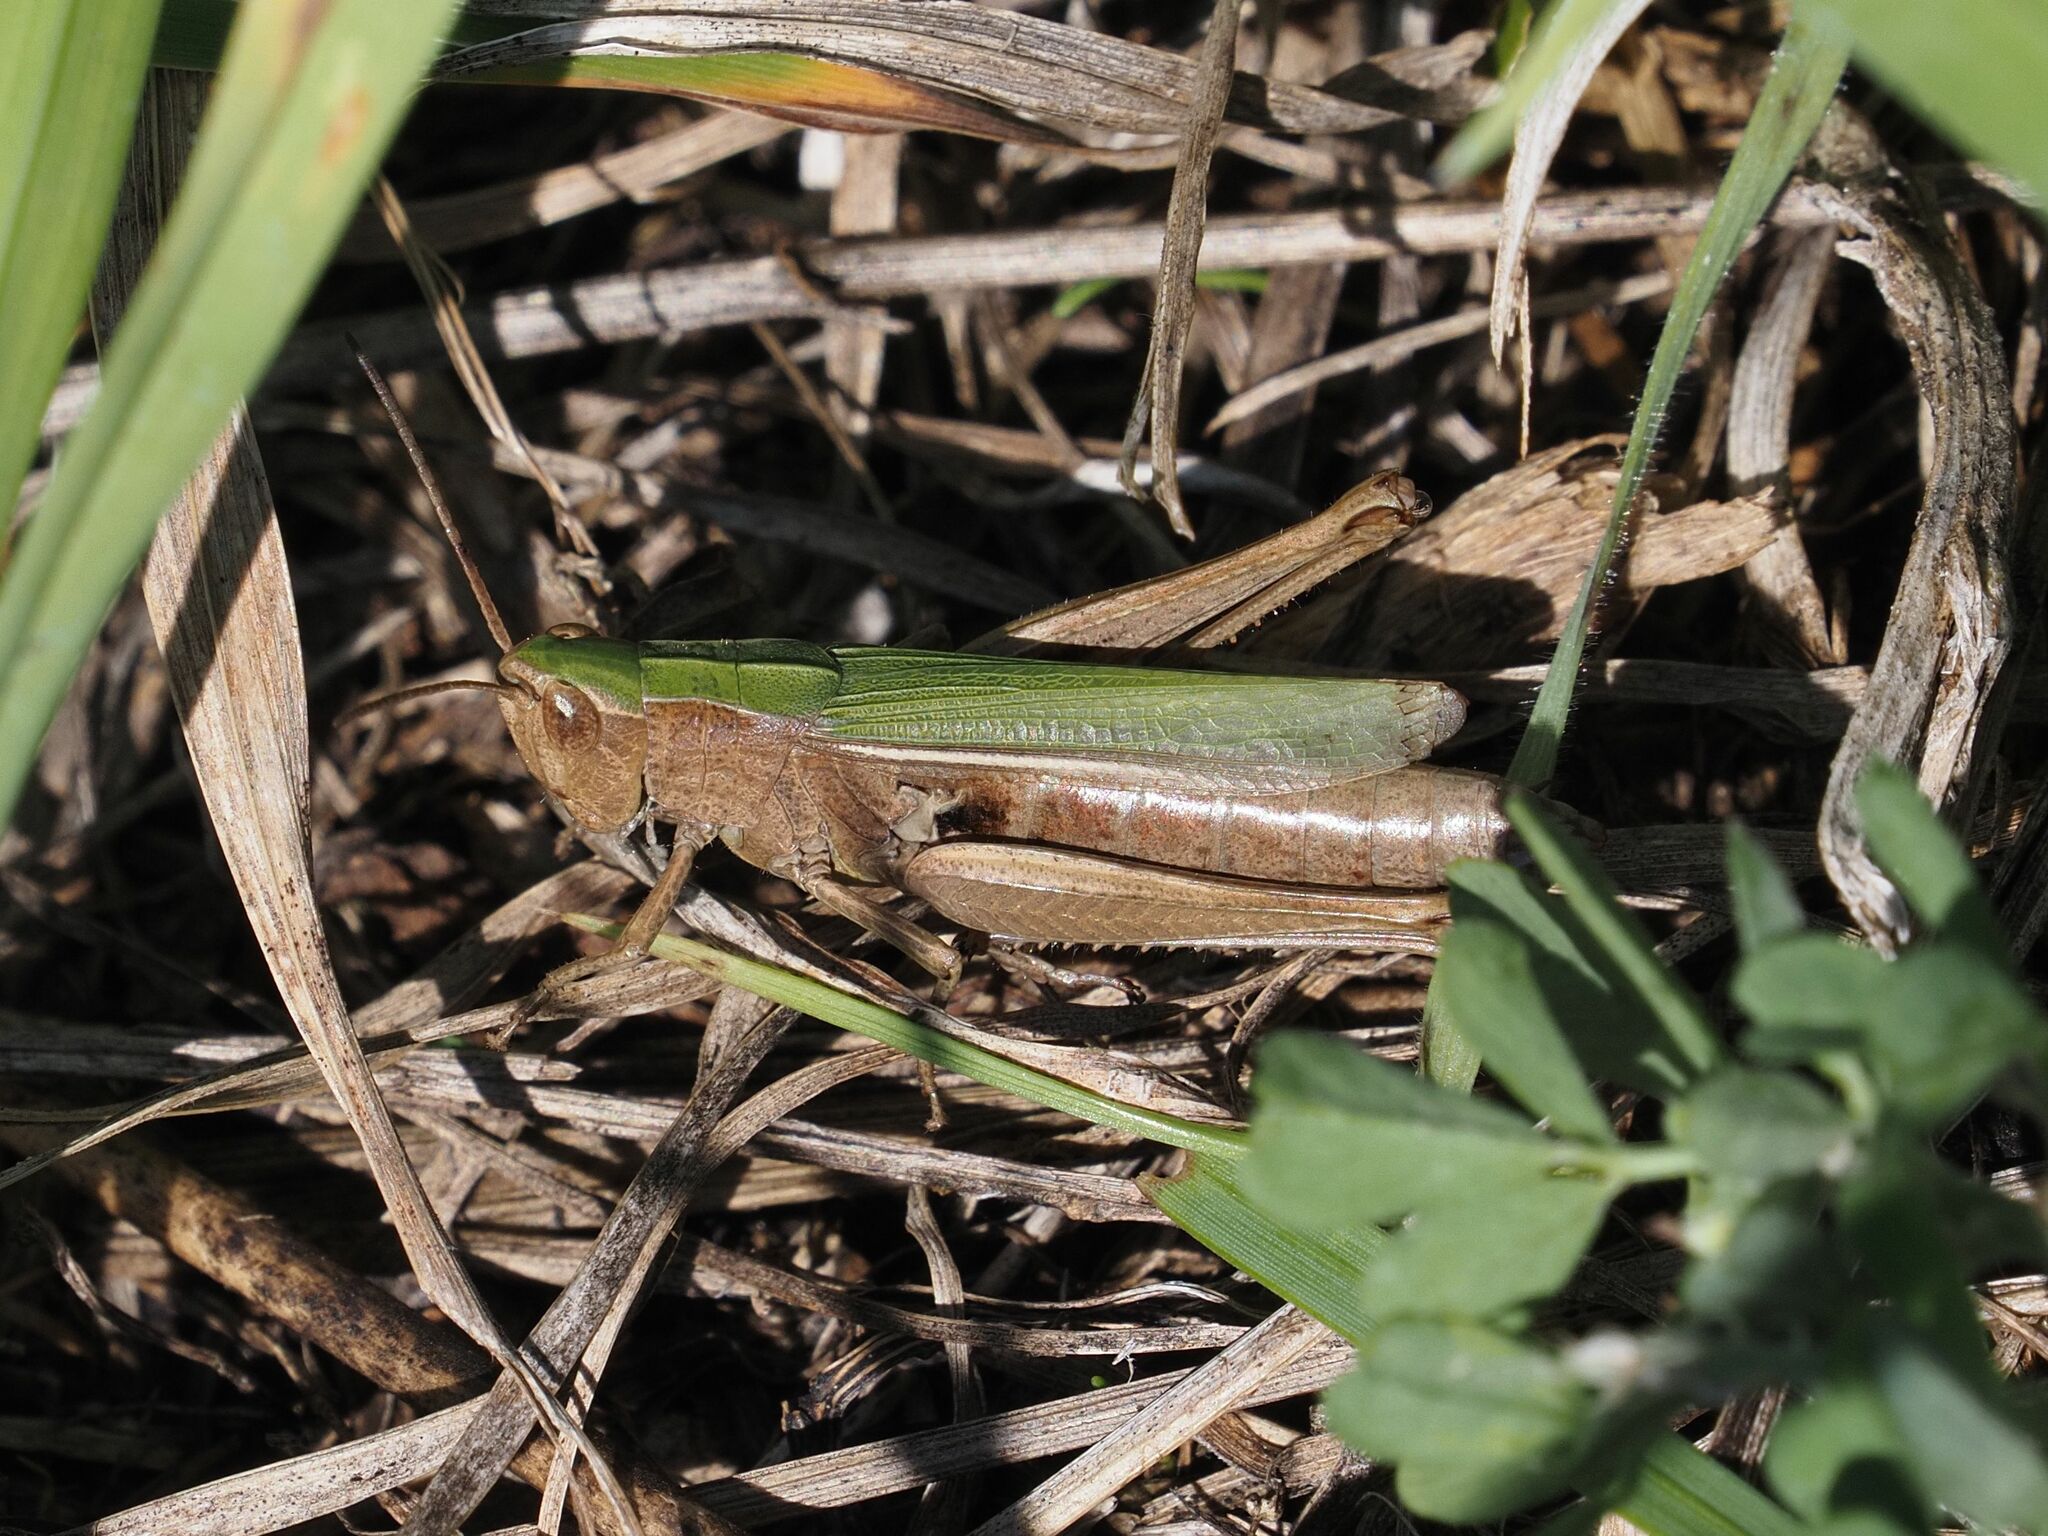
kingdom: Animalia
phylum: Arthropoda
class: Insecta
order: Orthoptera
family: Acrididae
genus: Chorthippus
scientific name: Chorthippus dorsatus
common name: Steppe grasshopper
